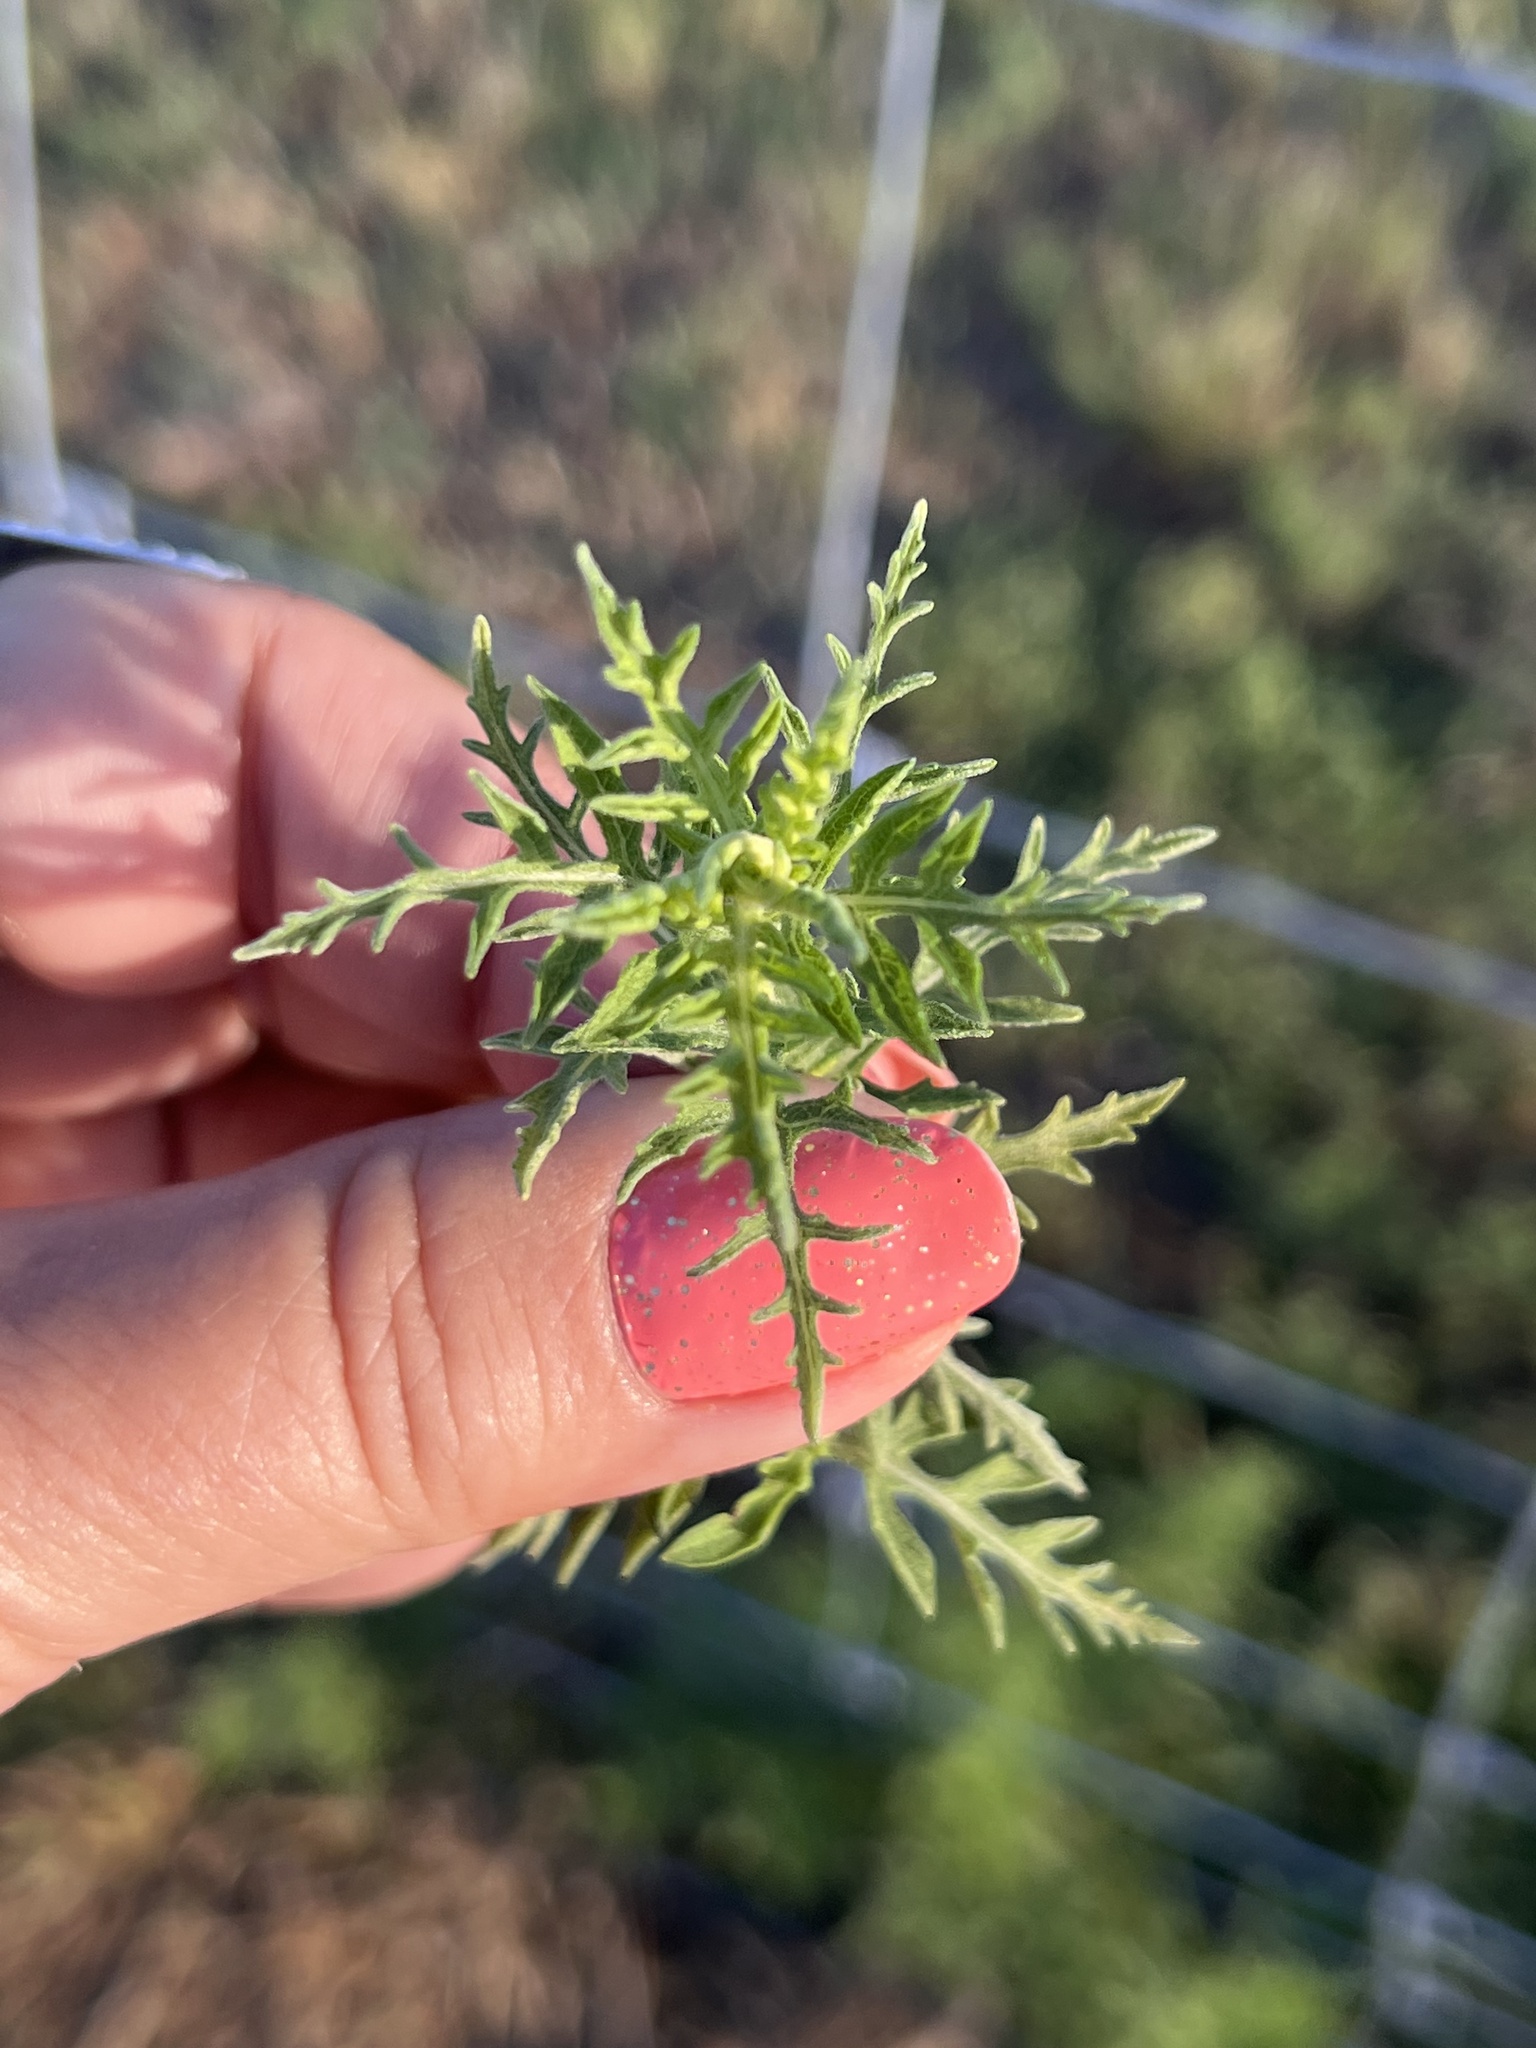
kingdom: Plantae
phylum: Tracheophyta
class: Magnoliopsida
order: Asterales
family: Asteraceae
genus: Ambrosia
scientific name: Ambrosia psilostachya
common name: Perennial ragweed
